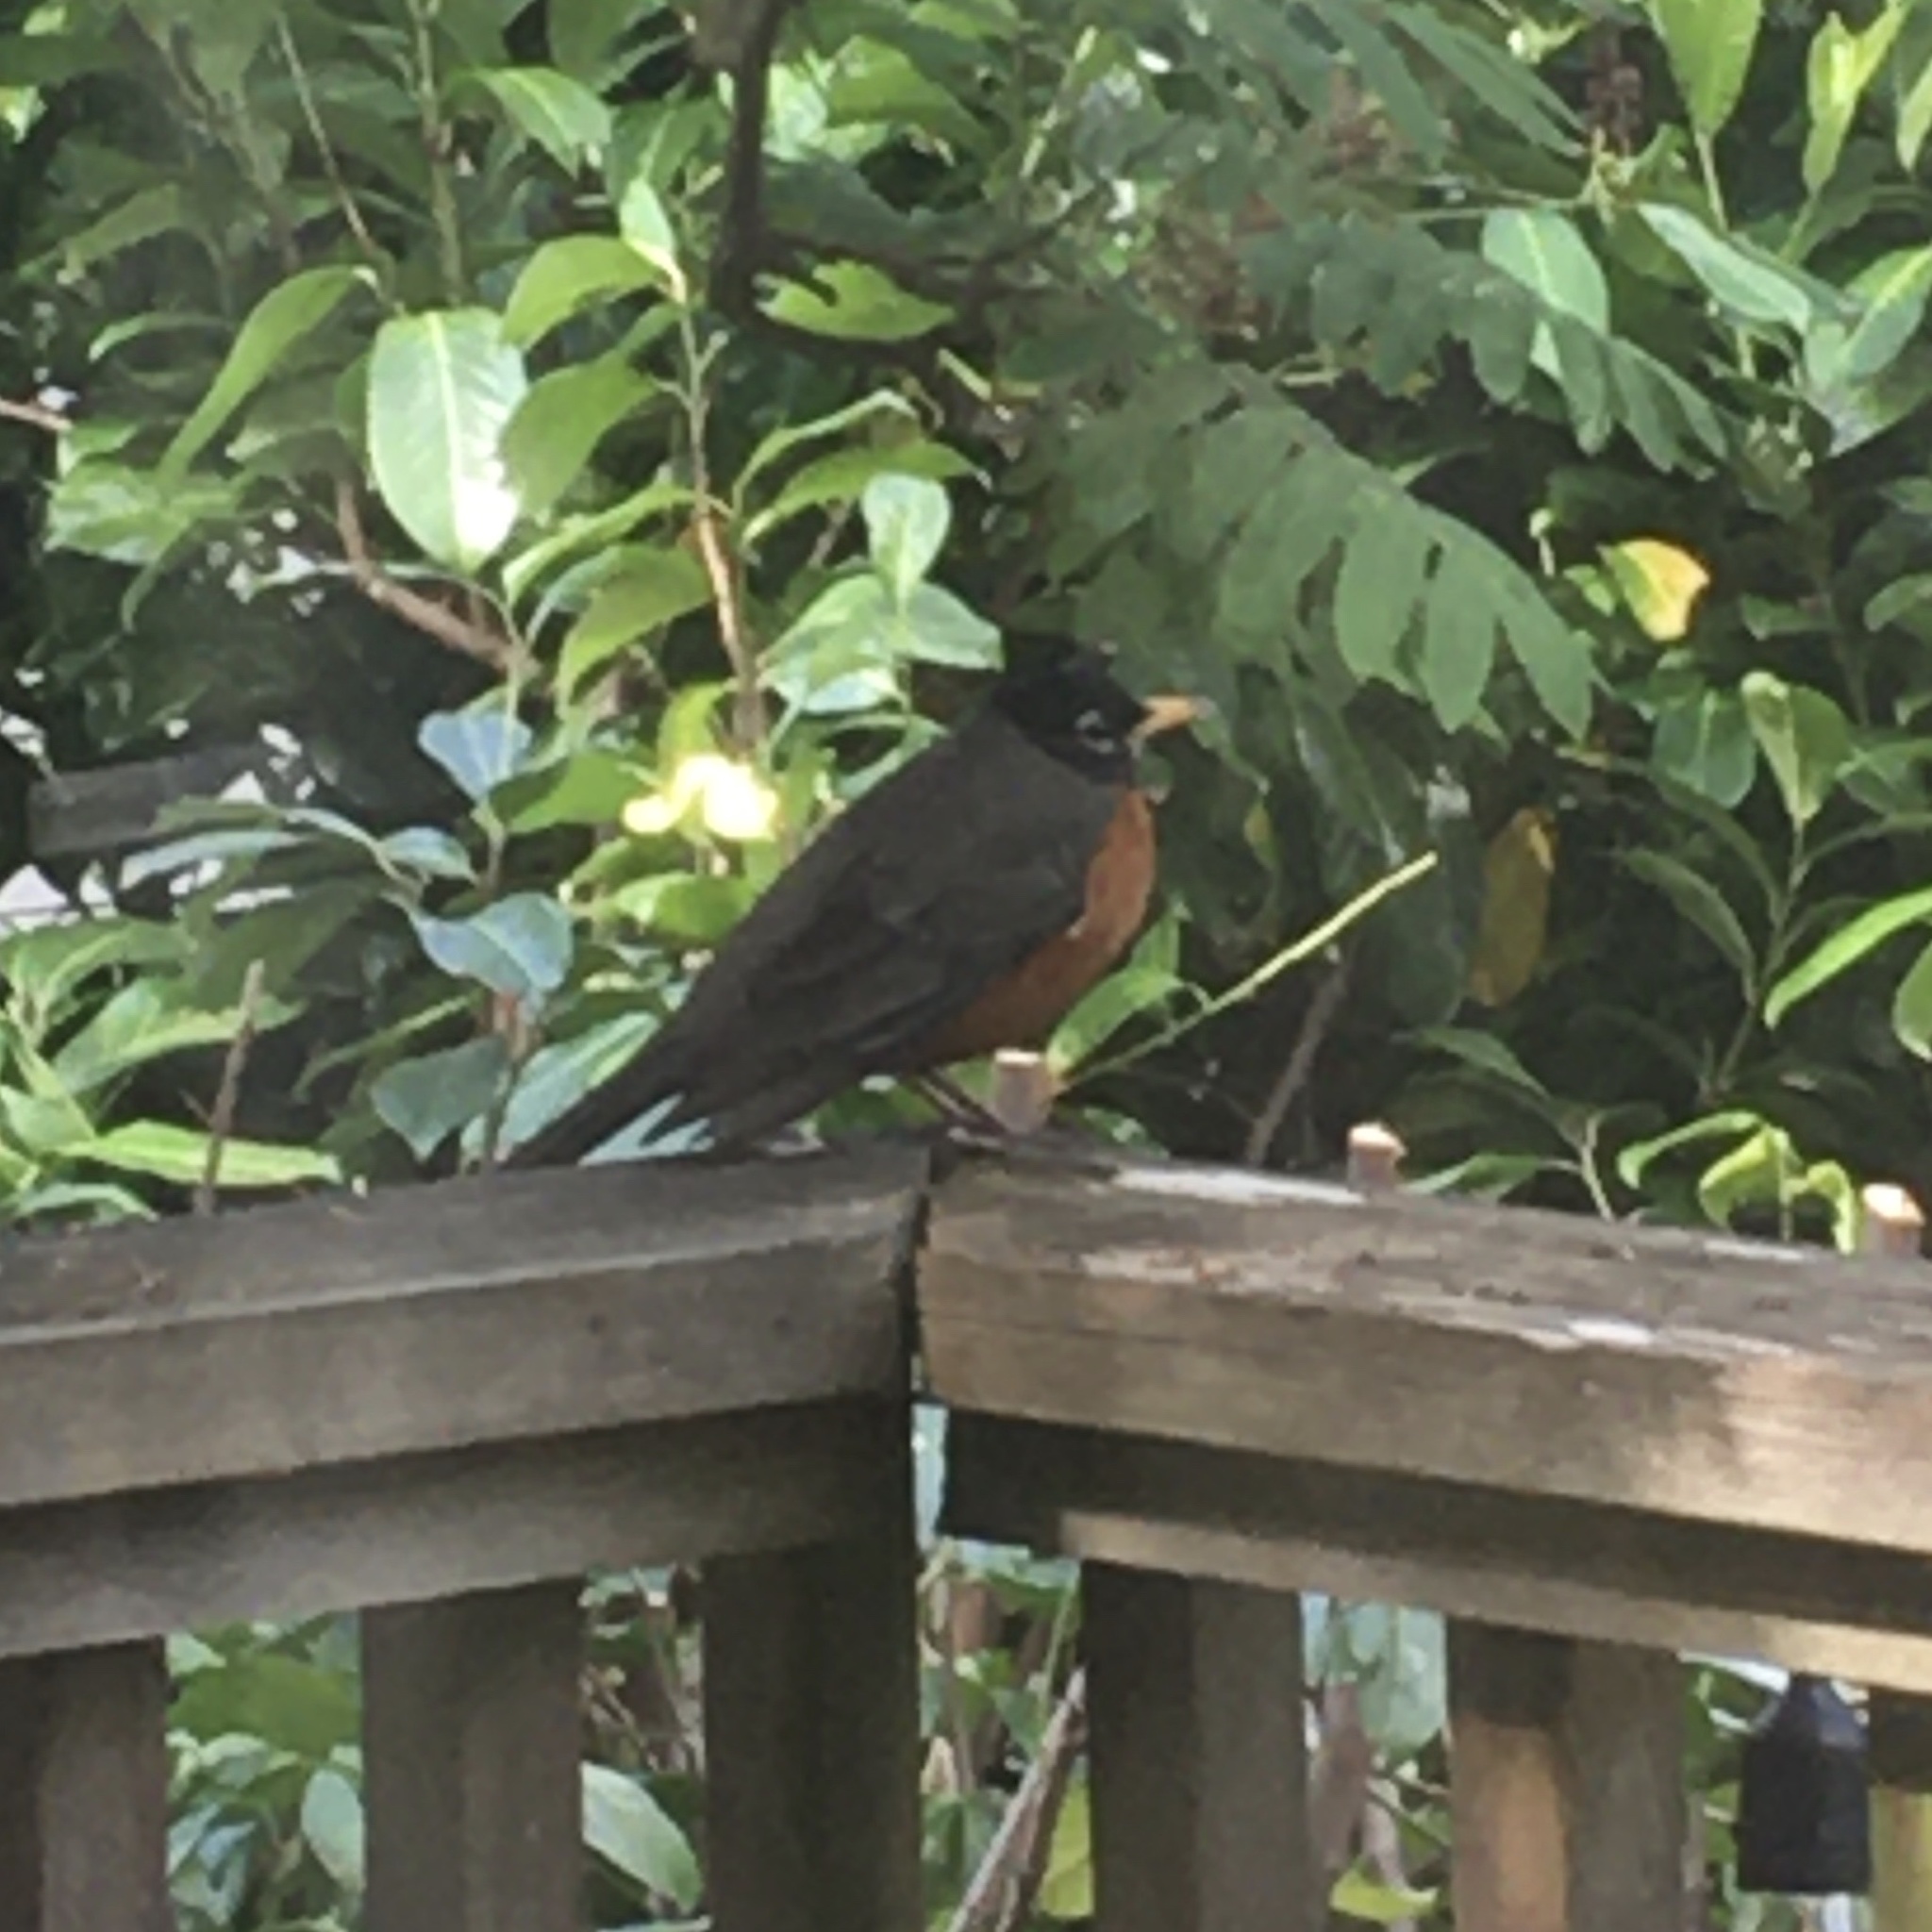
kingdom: Animalia
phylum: Chordata
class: Aves
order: Passeriformes
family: Turdidae
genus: Turdus
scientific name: Turdus migratorius
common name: American robin
